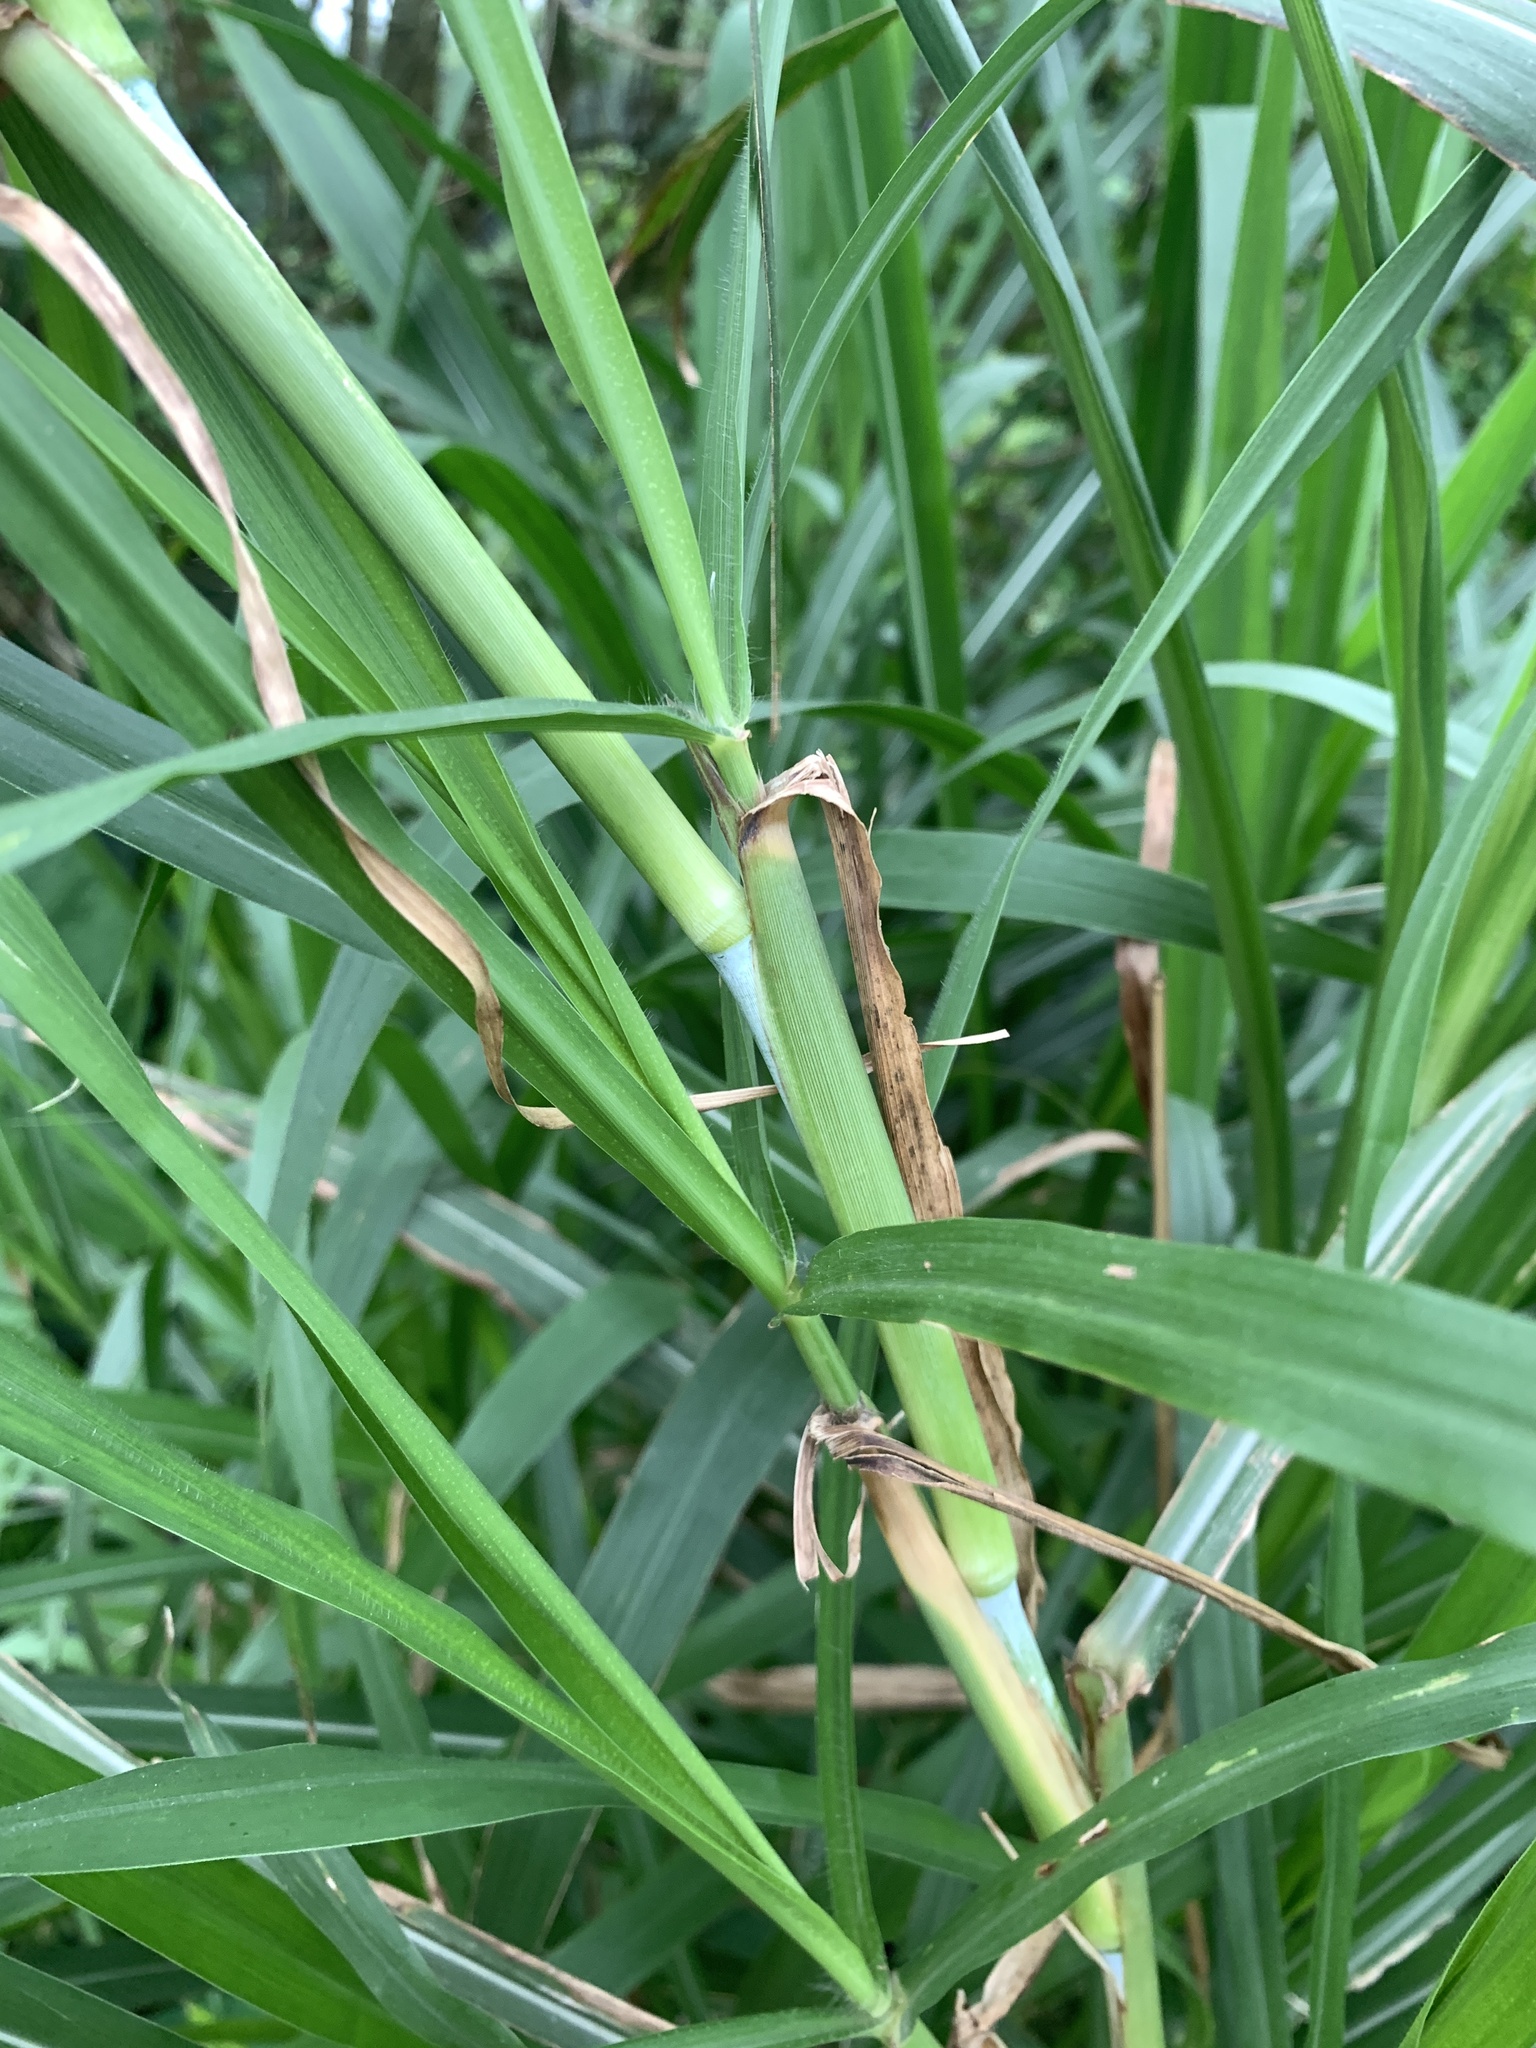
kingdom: Plantae
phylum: Tracheophyta
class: Liliopsida
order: Poales
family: Poaceae
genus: Cenchrus
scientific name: Cenchrus purpureus
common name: Elephant grass
